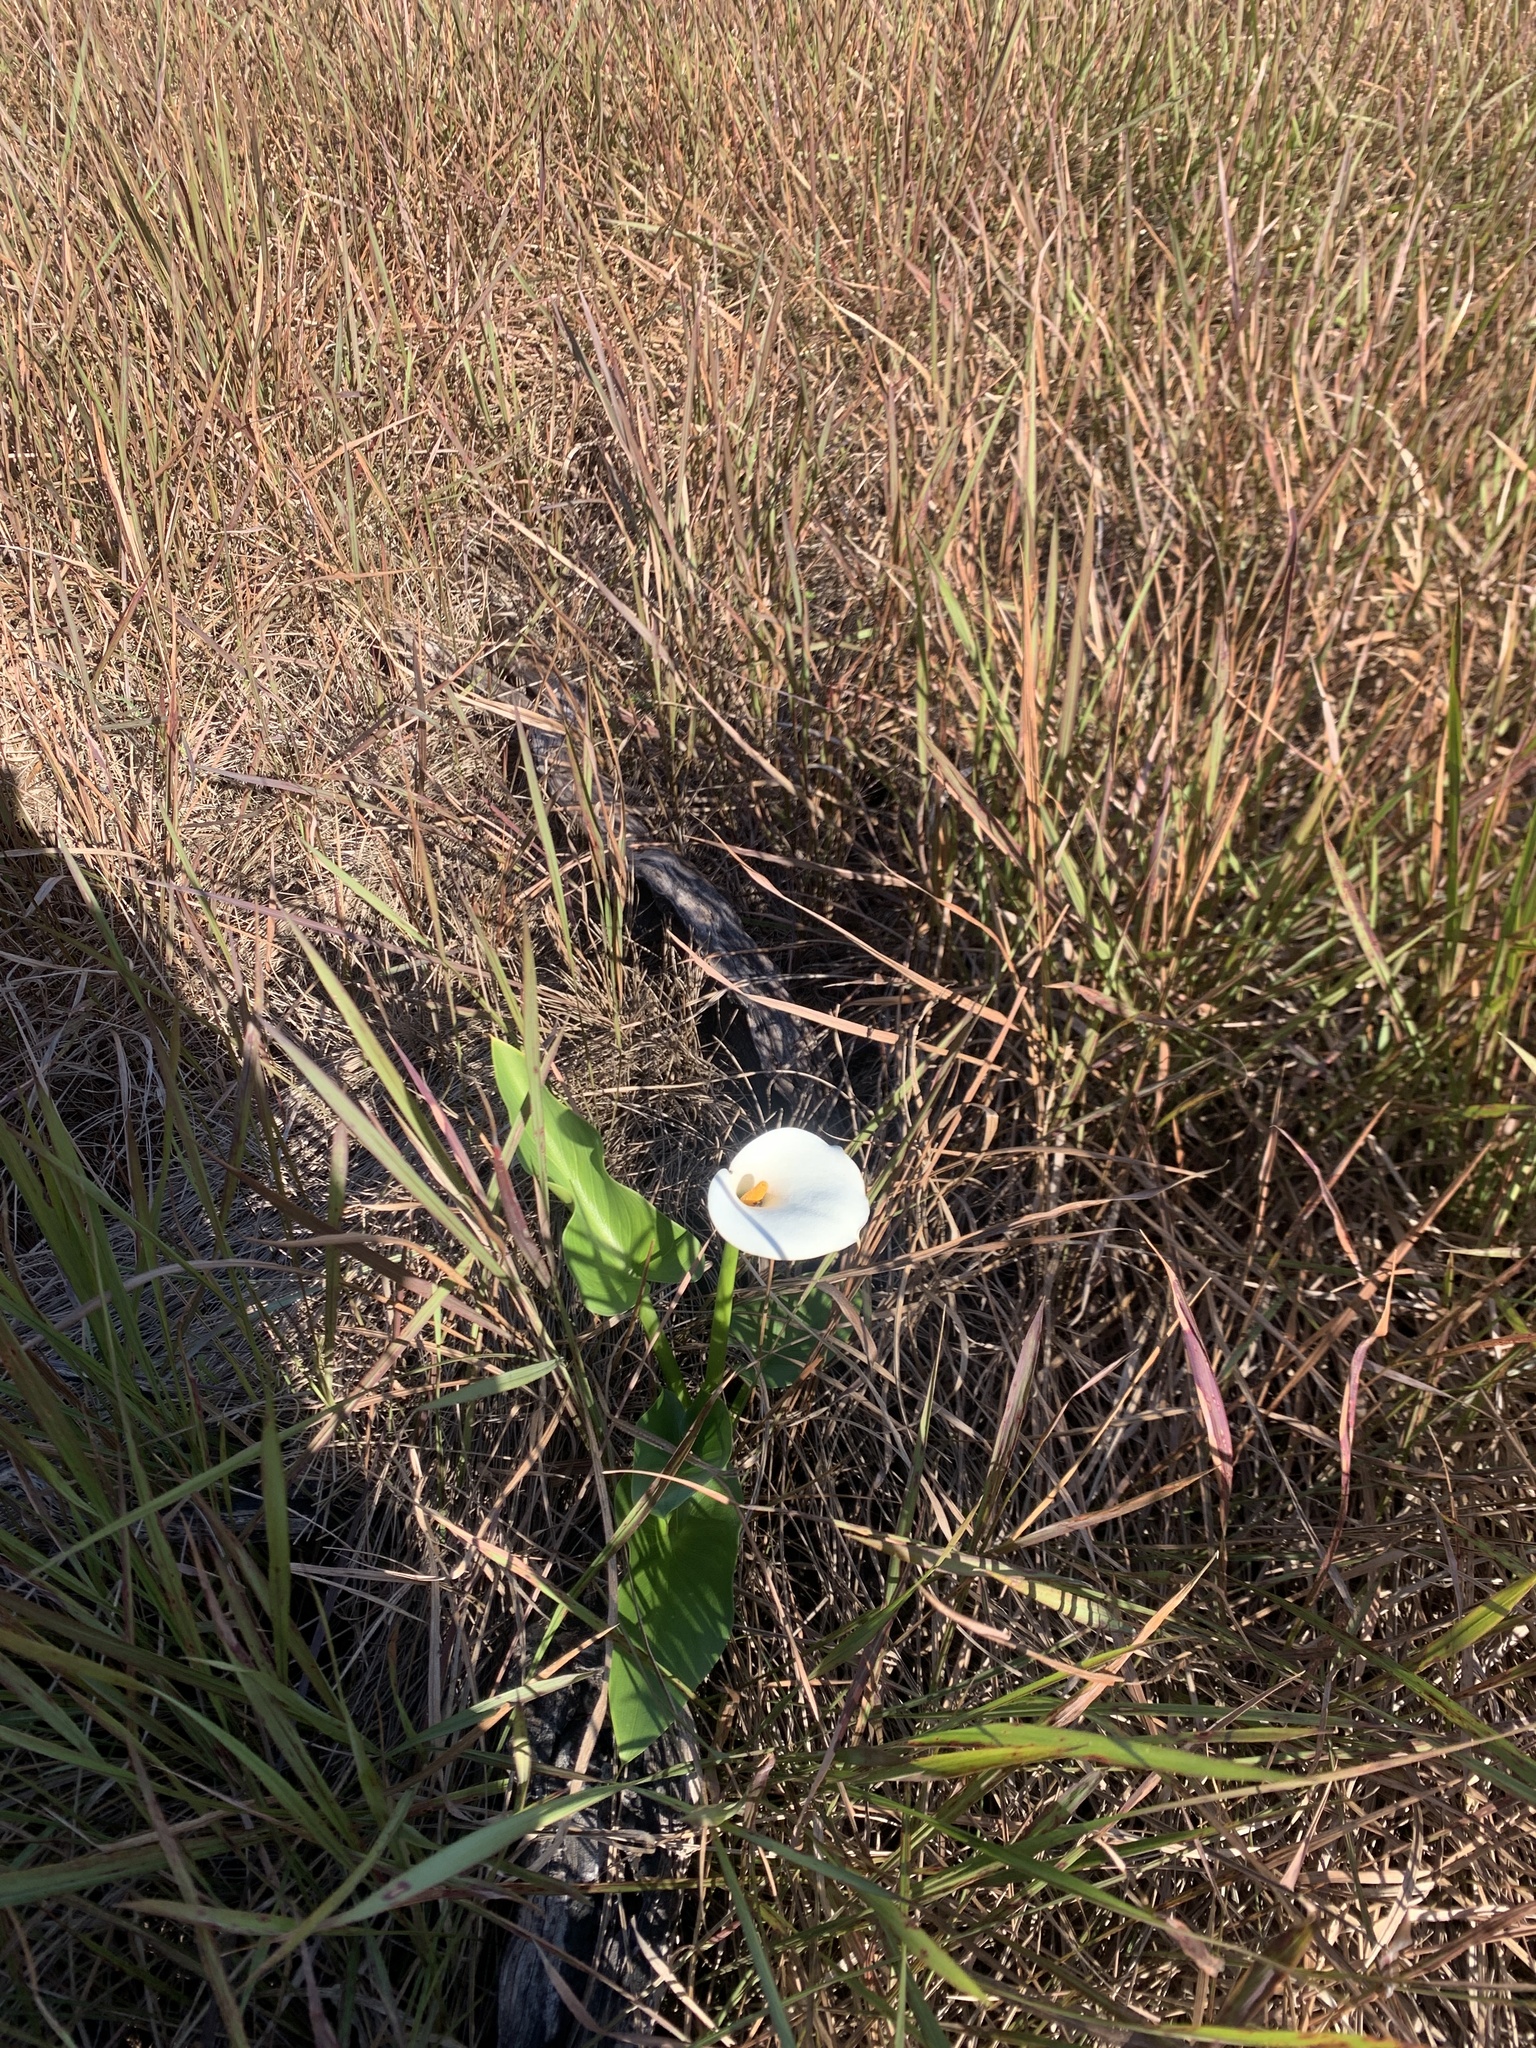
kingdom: Plantae
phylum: Tracheophyta
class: Liliopsida
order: Alismatales
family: Araceae
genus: Zantedeschia
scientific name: Zantedeschia aethiopica
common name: Altar-lily
